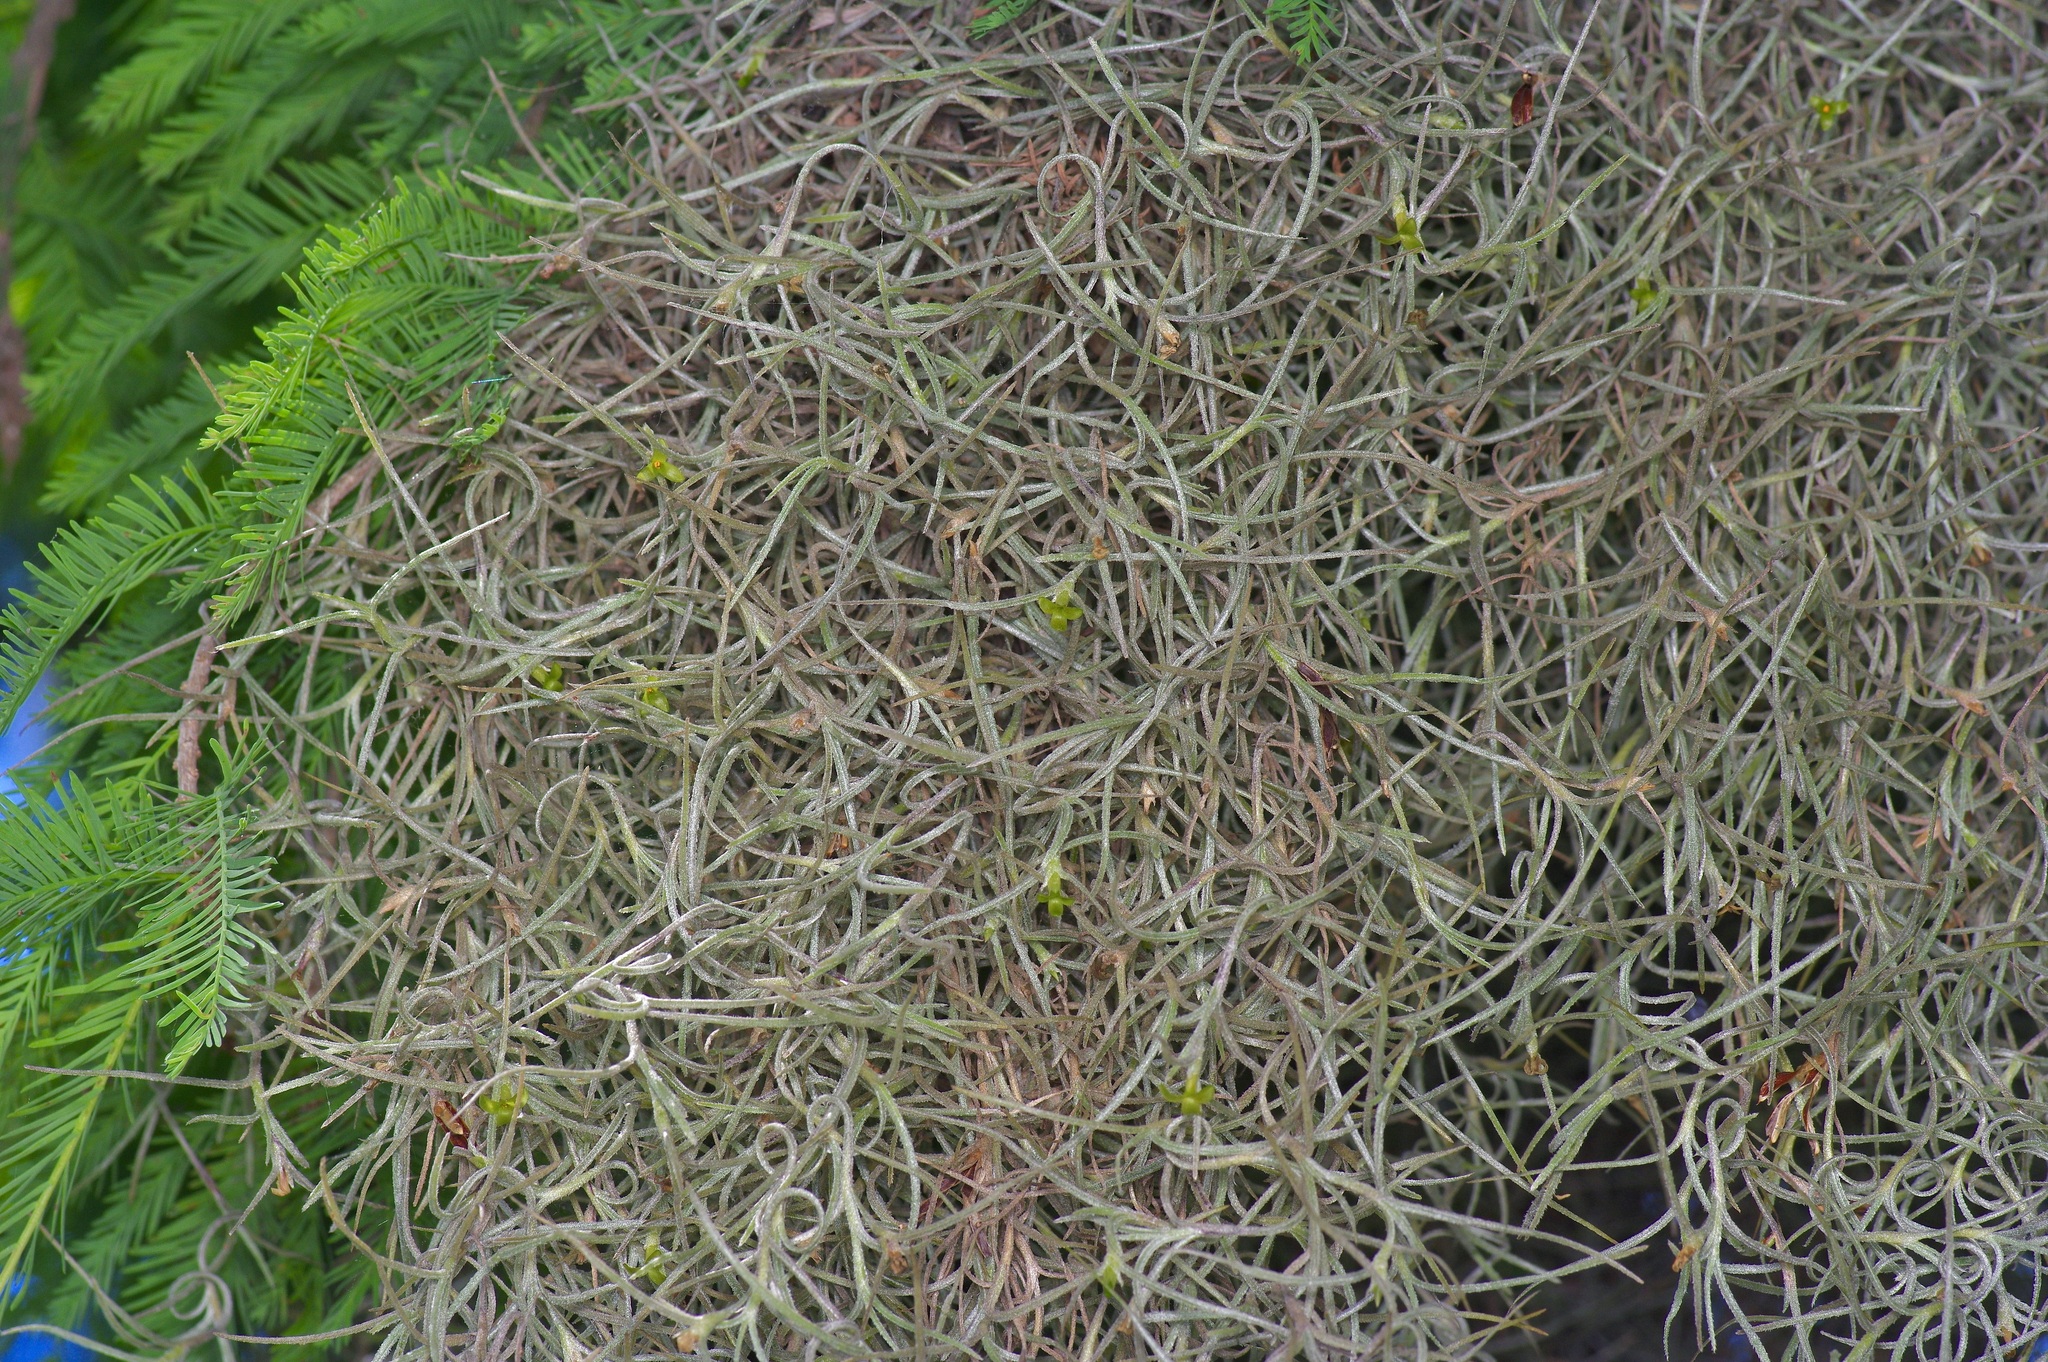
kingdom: Plantae
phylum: Tracheophyta
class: Liliopsida
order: Poales
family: Bromeliaceae
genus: Tillandsia
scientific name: Tillandsia usneoides
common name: Spanish moss
